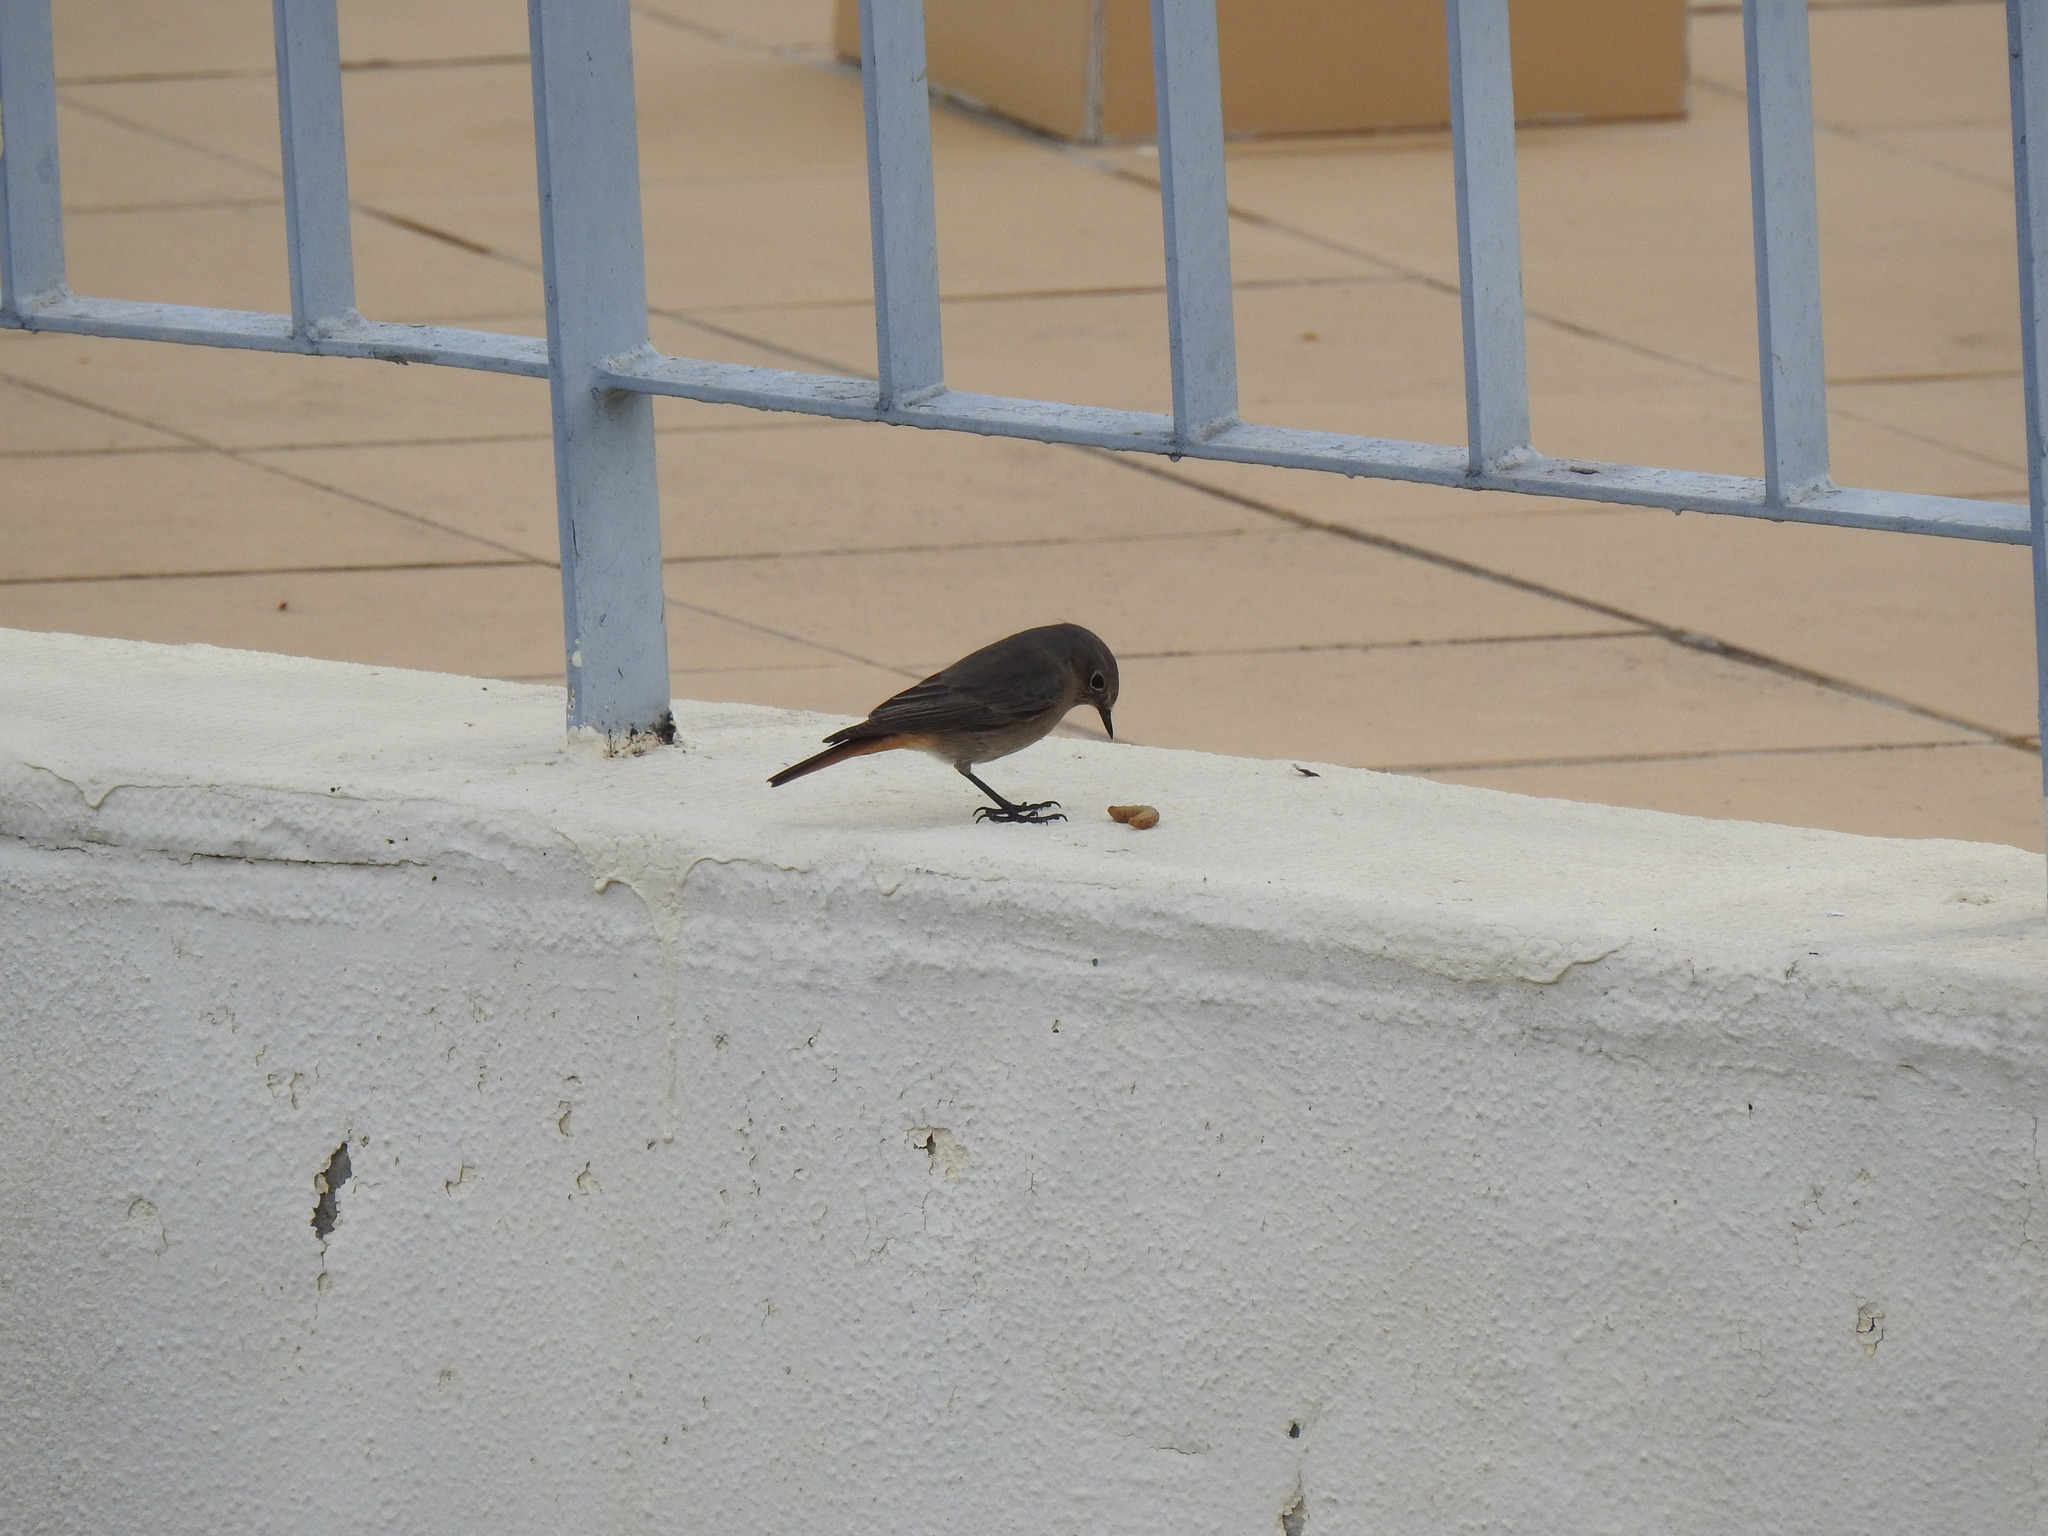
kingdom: Animalia
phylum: Chordata
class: Aves
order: Passeriformes
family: Muscicapidae
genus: Phoenicurus
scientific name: Phoenicurus ochruros
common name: Black redstart
